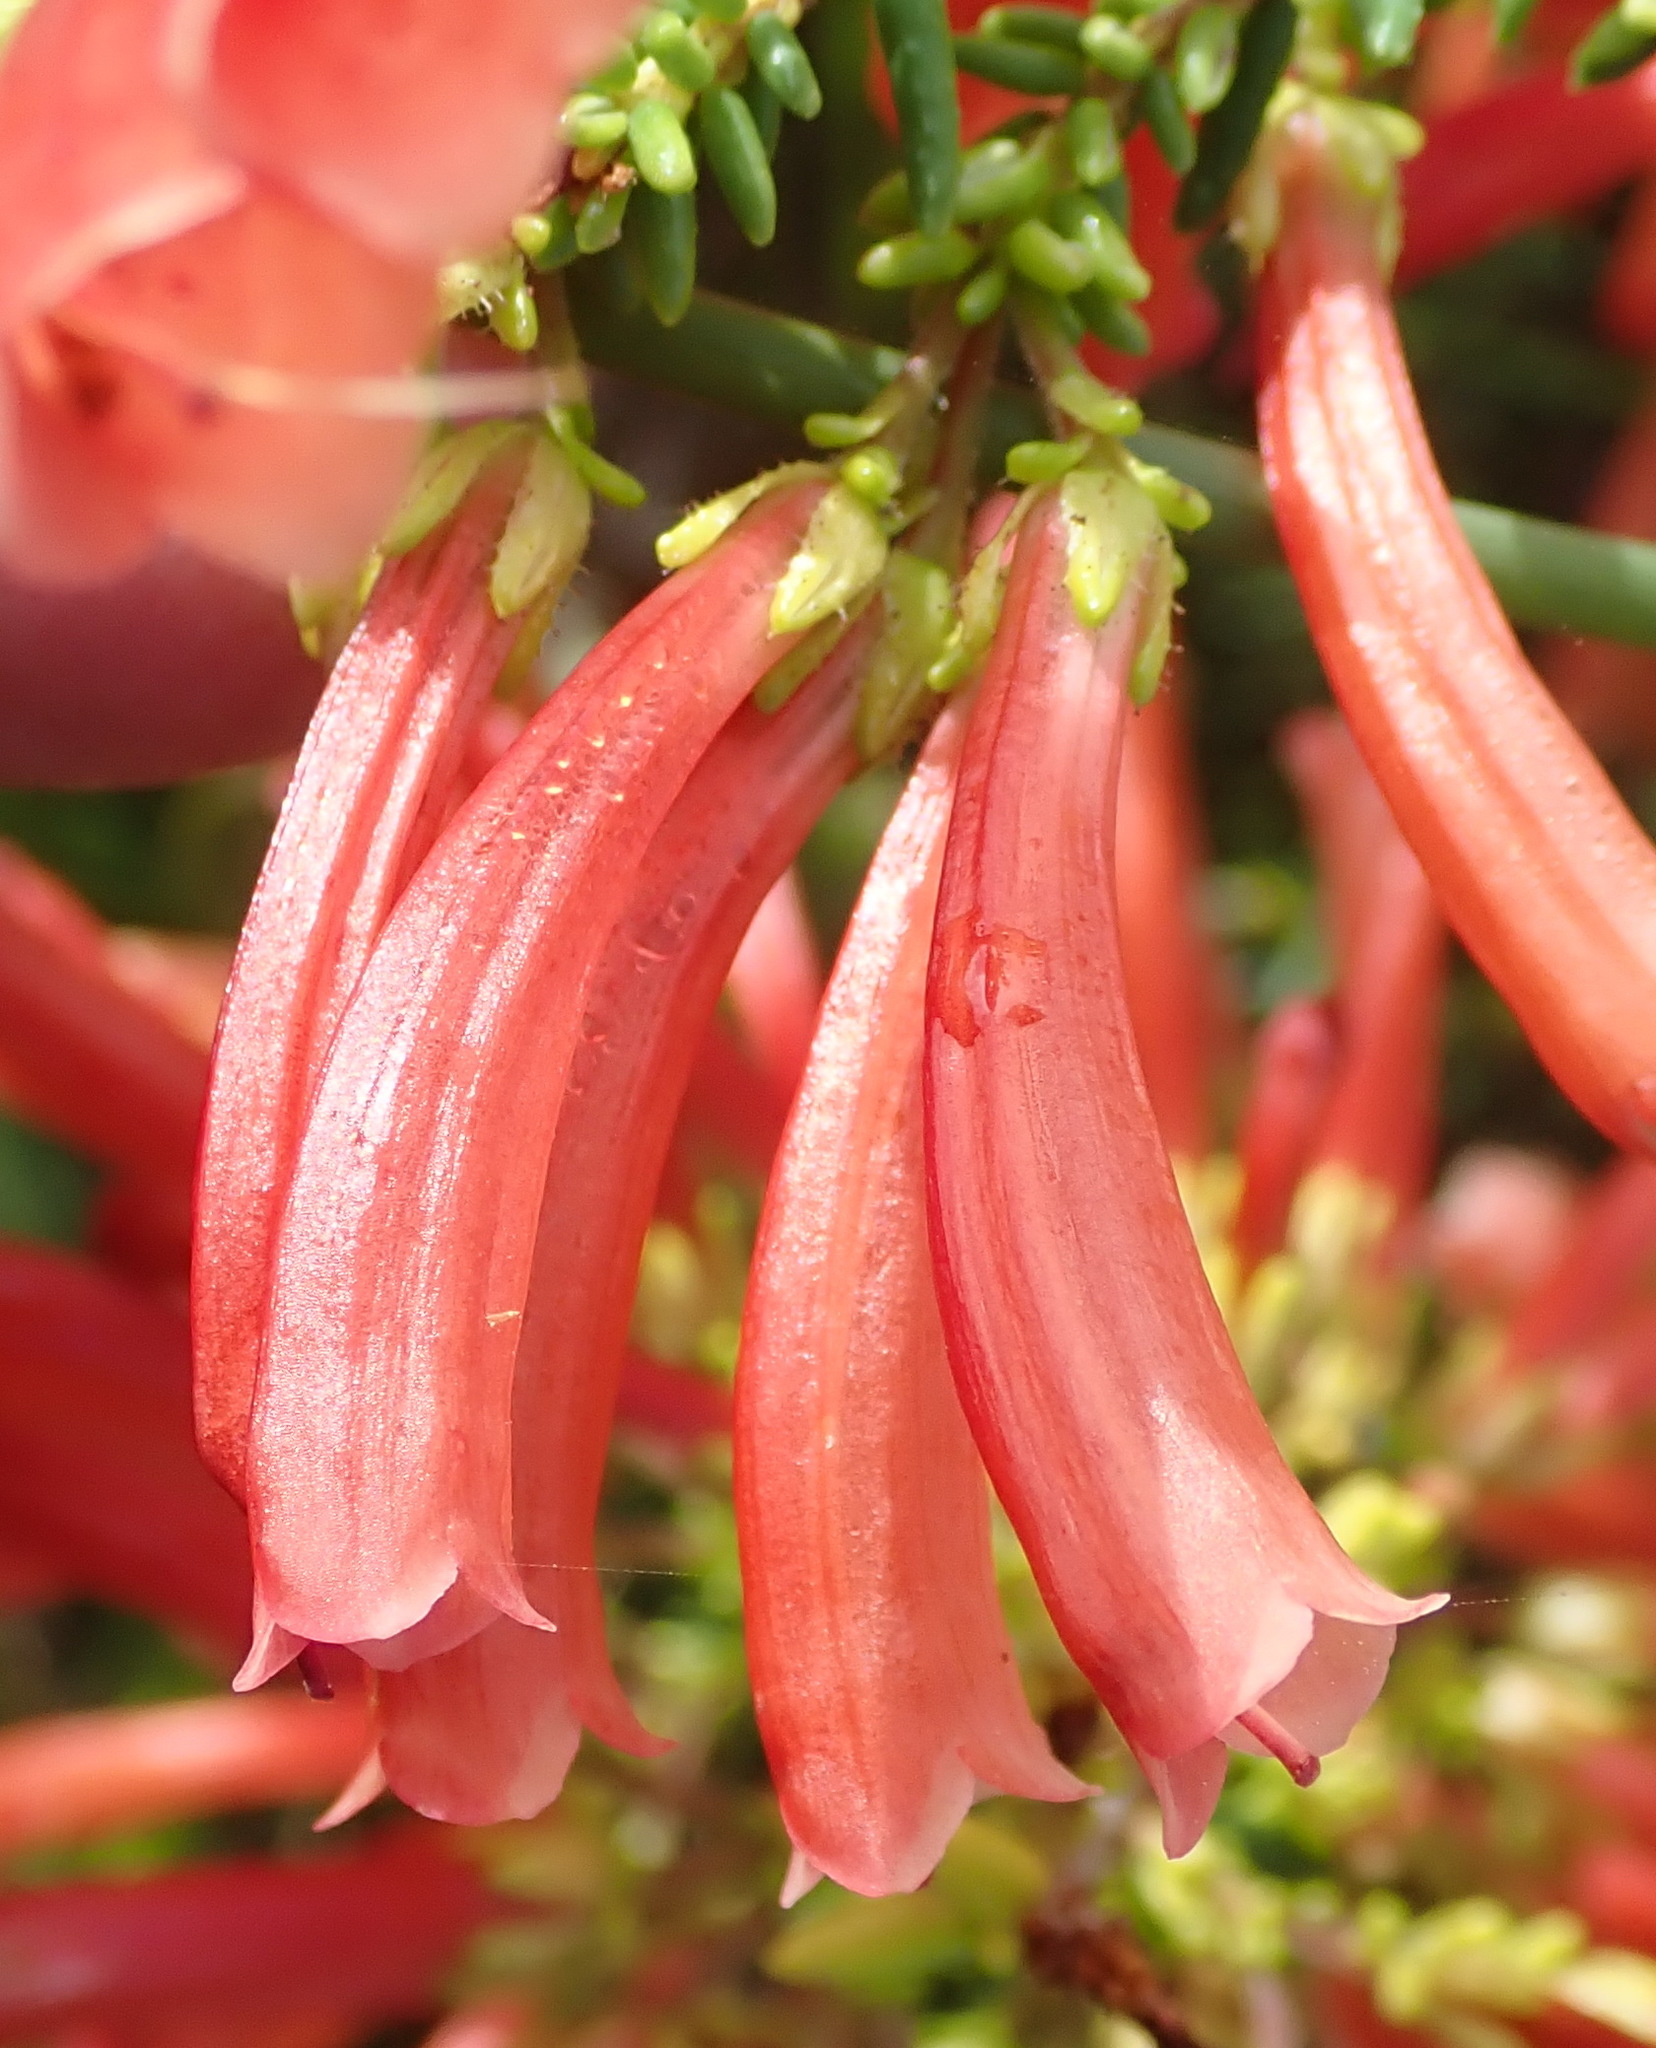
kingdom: Plantae
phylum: Tracheophyta
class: Magnoliopsida
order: Ericales
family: Ericaceae
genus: Erica
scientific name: Erica glandulosa
